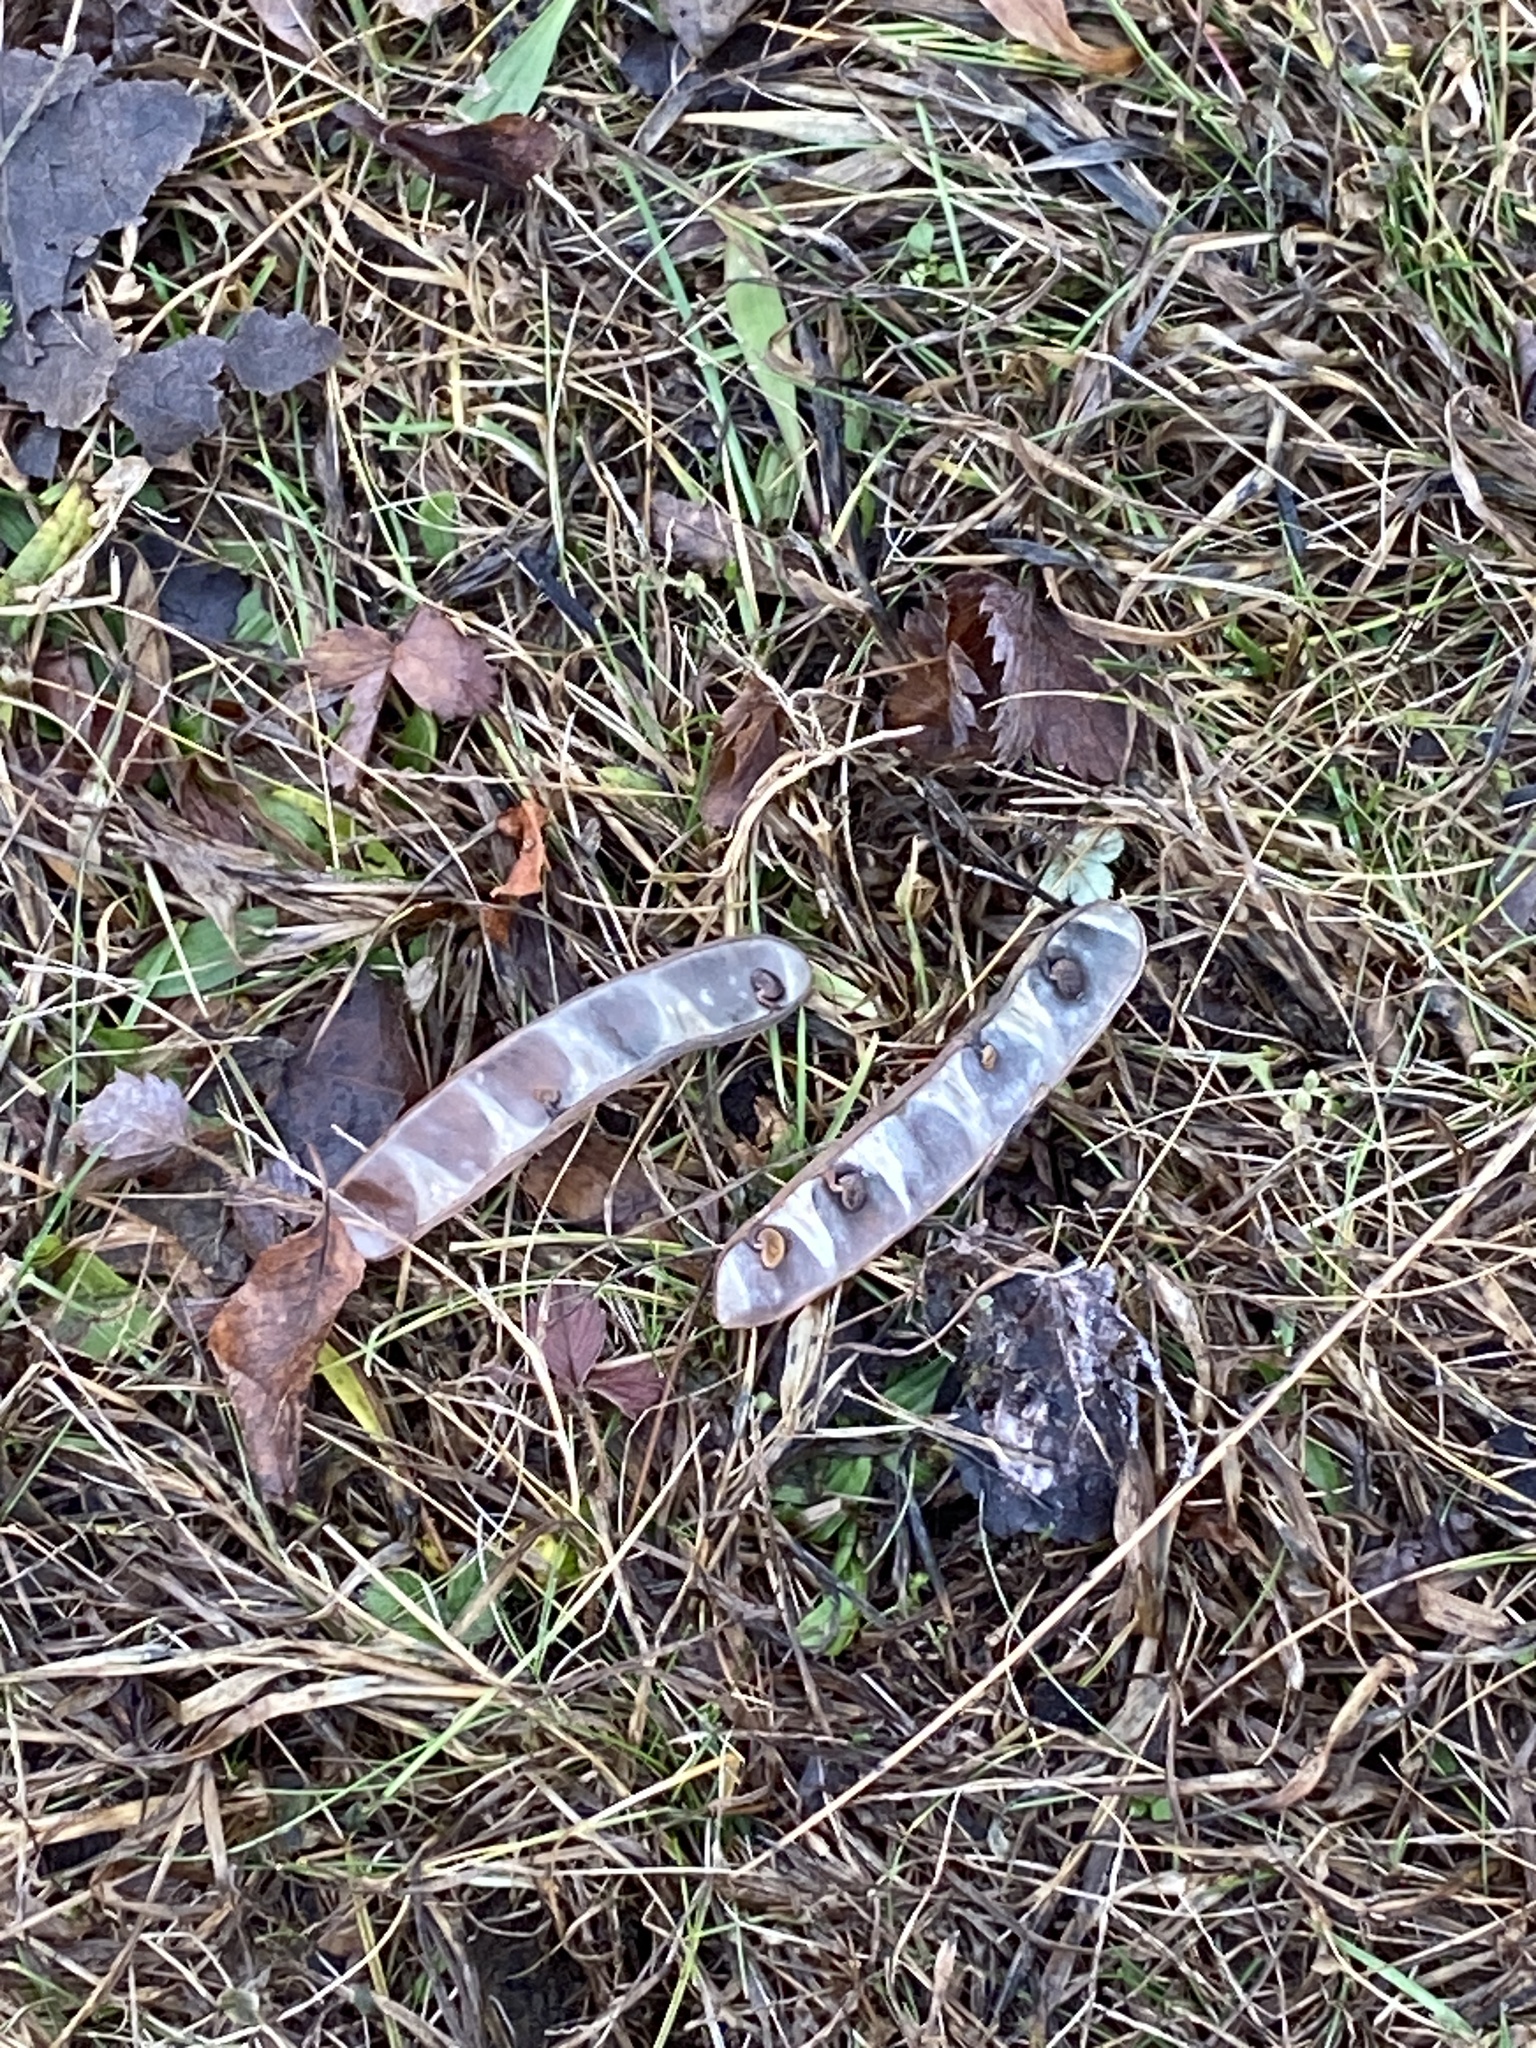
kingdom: Plantae
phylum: Tracheophyta
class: Magnoliopsida
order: Fabales
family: Fabaceae
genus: Robinia
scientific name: Robinia pseudoacacia
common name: Black locust
